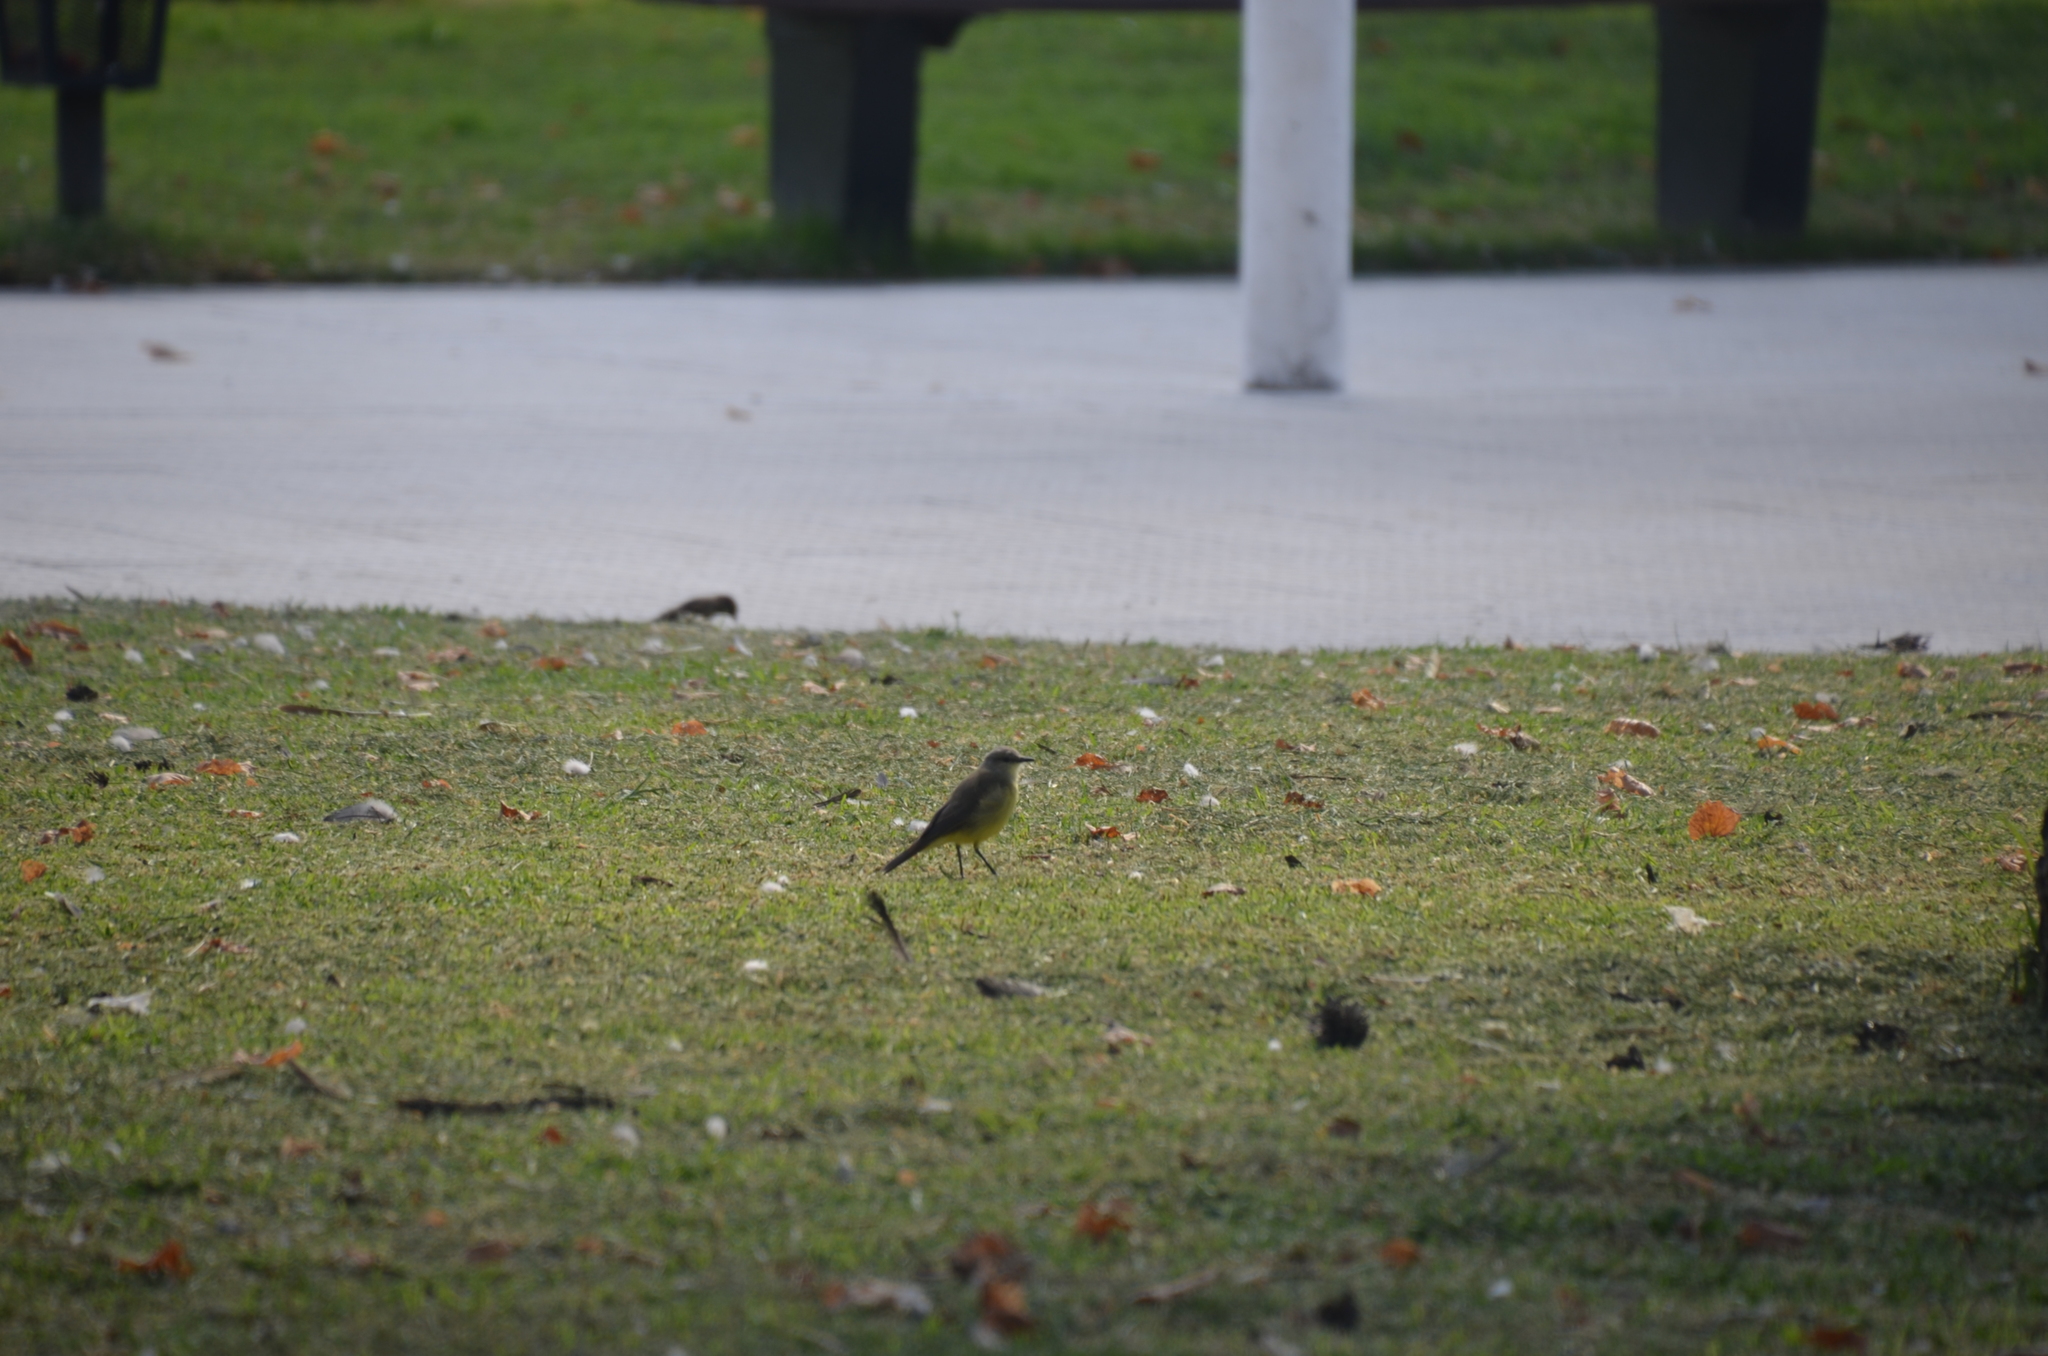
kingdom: Animalia
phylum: Chordata
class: Aves
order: Passeriformes
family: Tyrannidae
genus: Machetornis
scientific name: Machetornis rixosa
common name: Cattle tyrant
